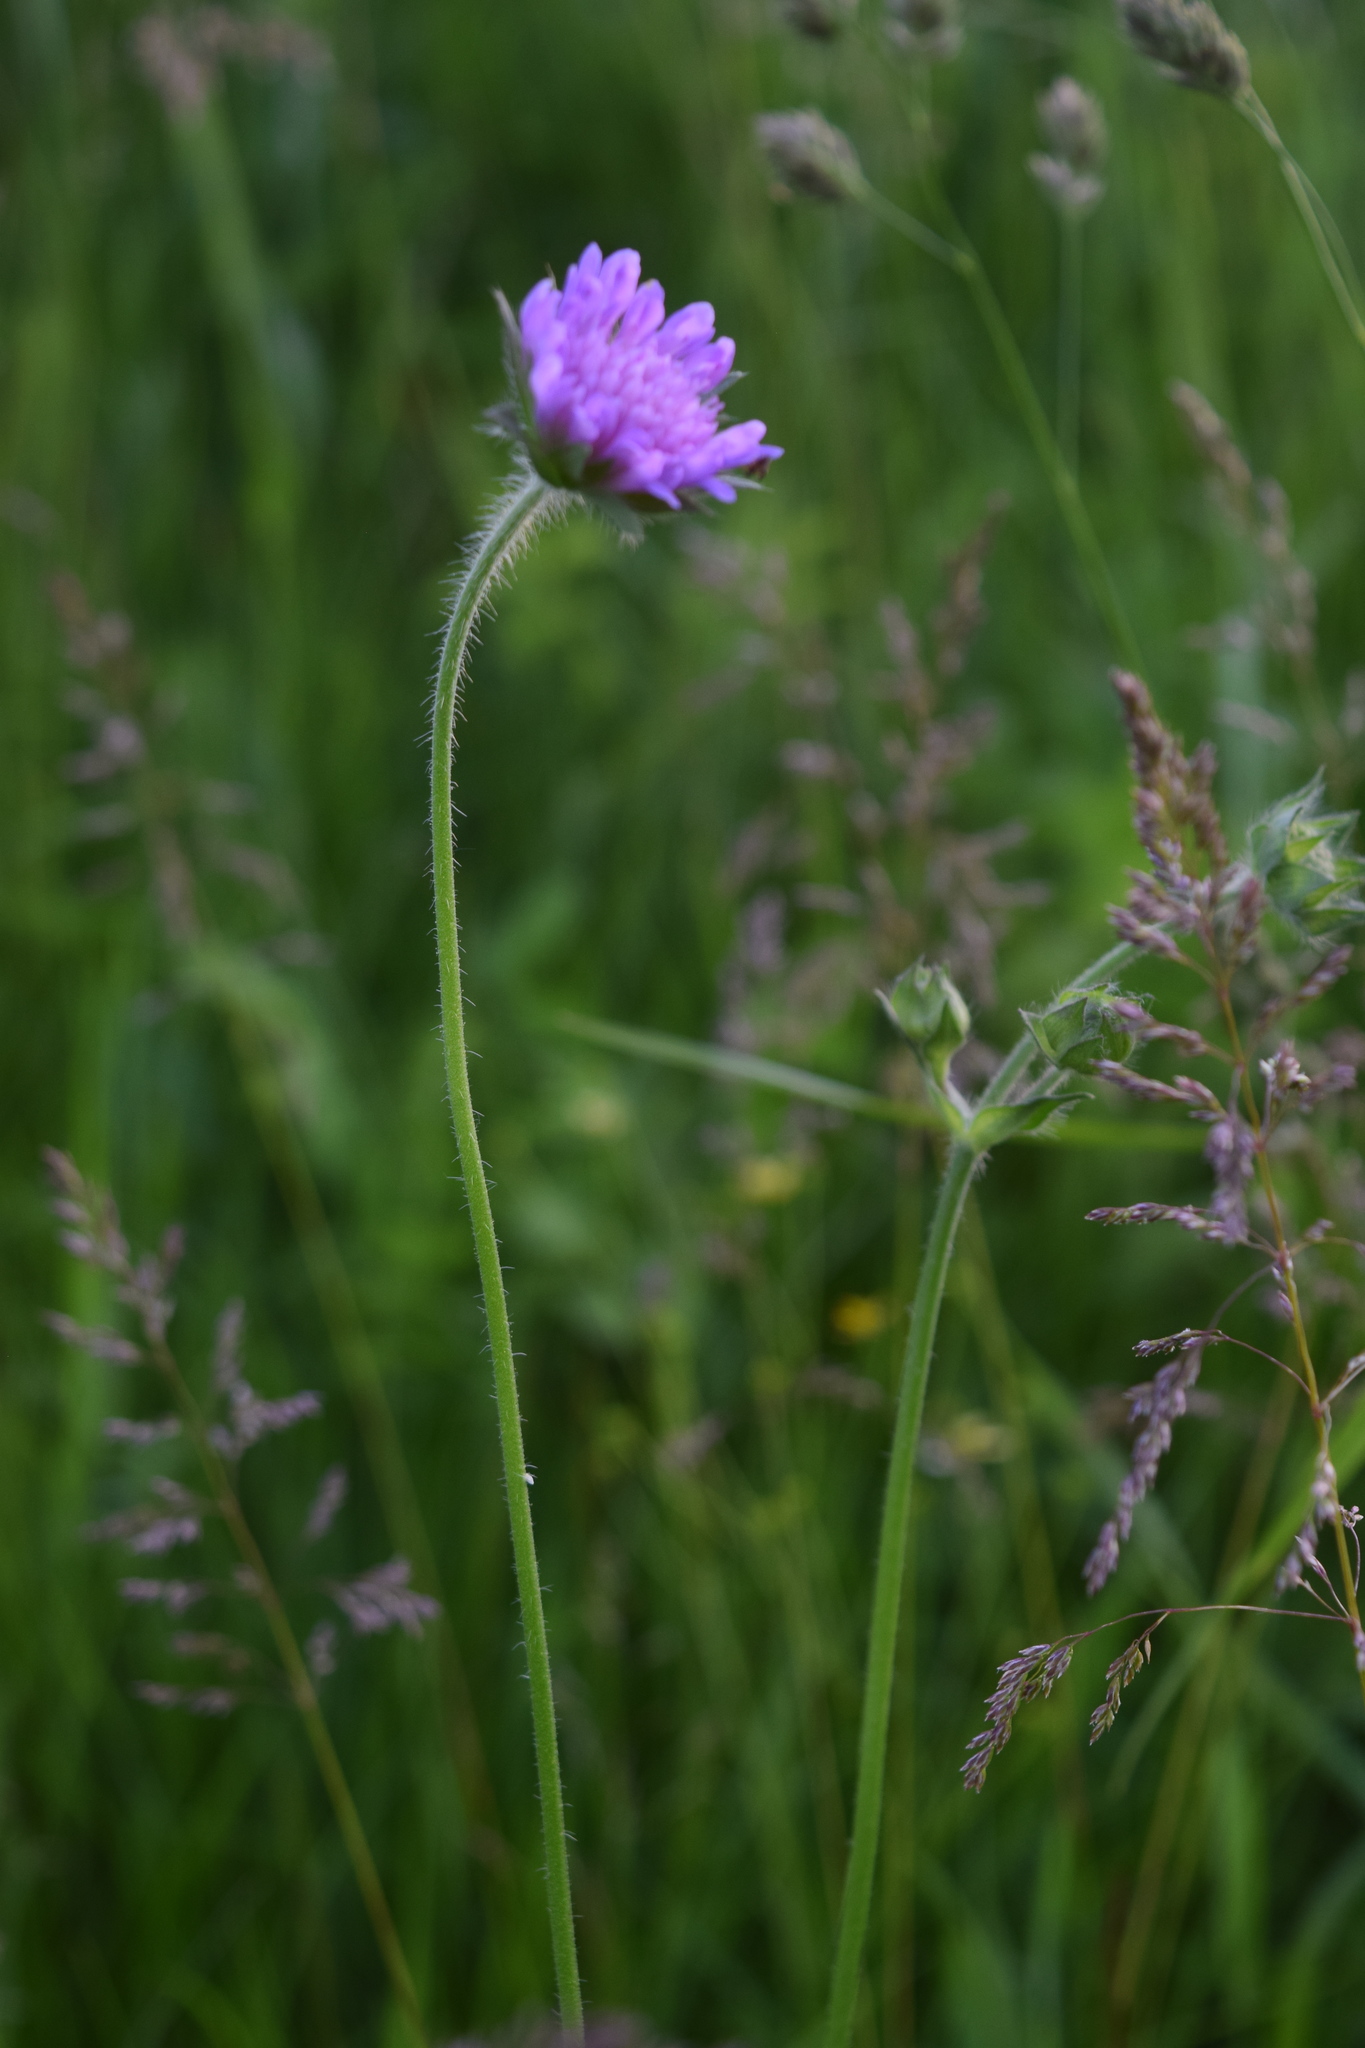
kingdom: Plantae
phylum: Tracheophyta
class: Magnoliopsida
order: Dipsacales
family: Caprifoliaceae
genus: Knautia
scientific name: Knautia arvensis
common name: Field scabiosa
